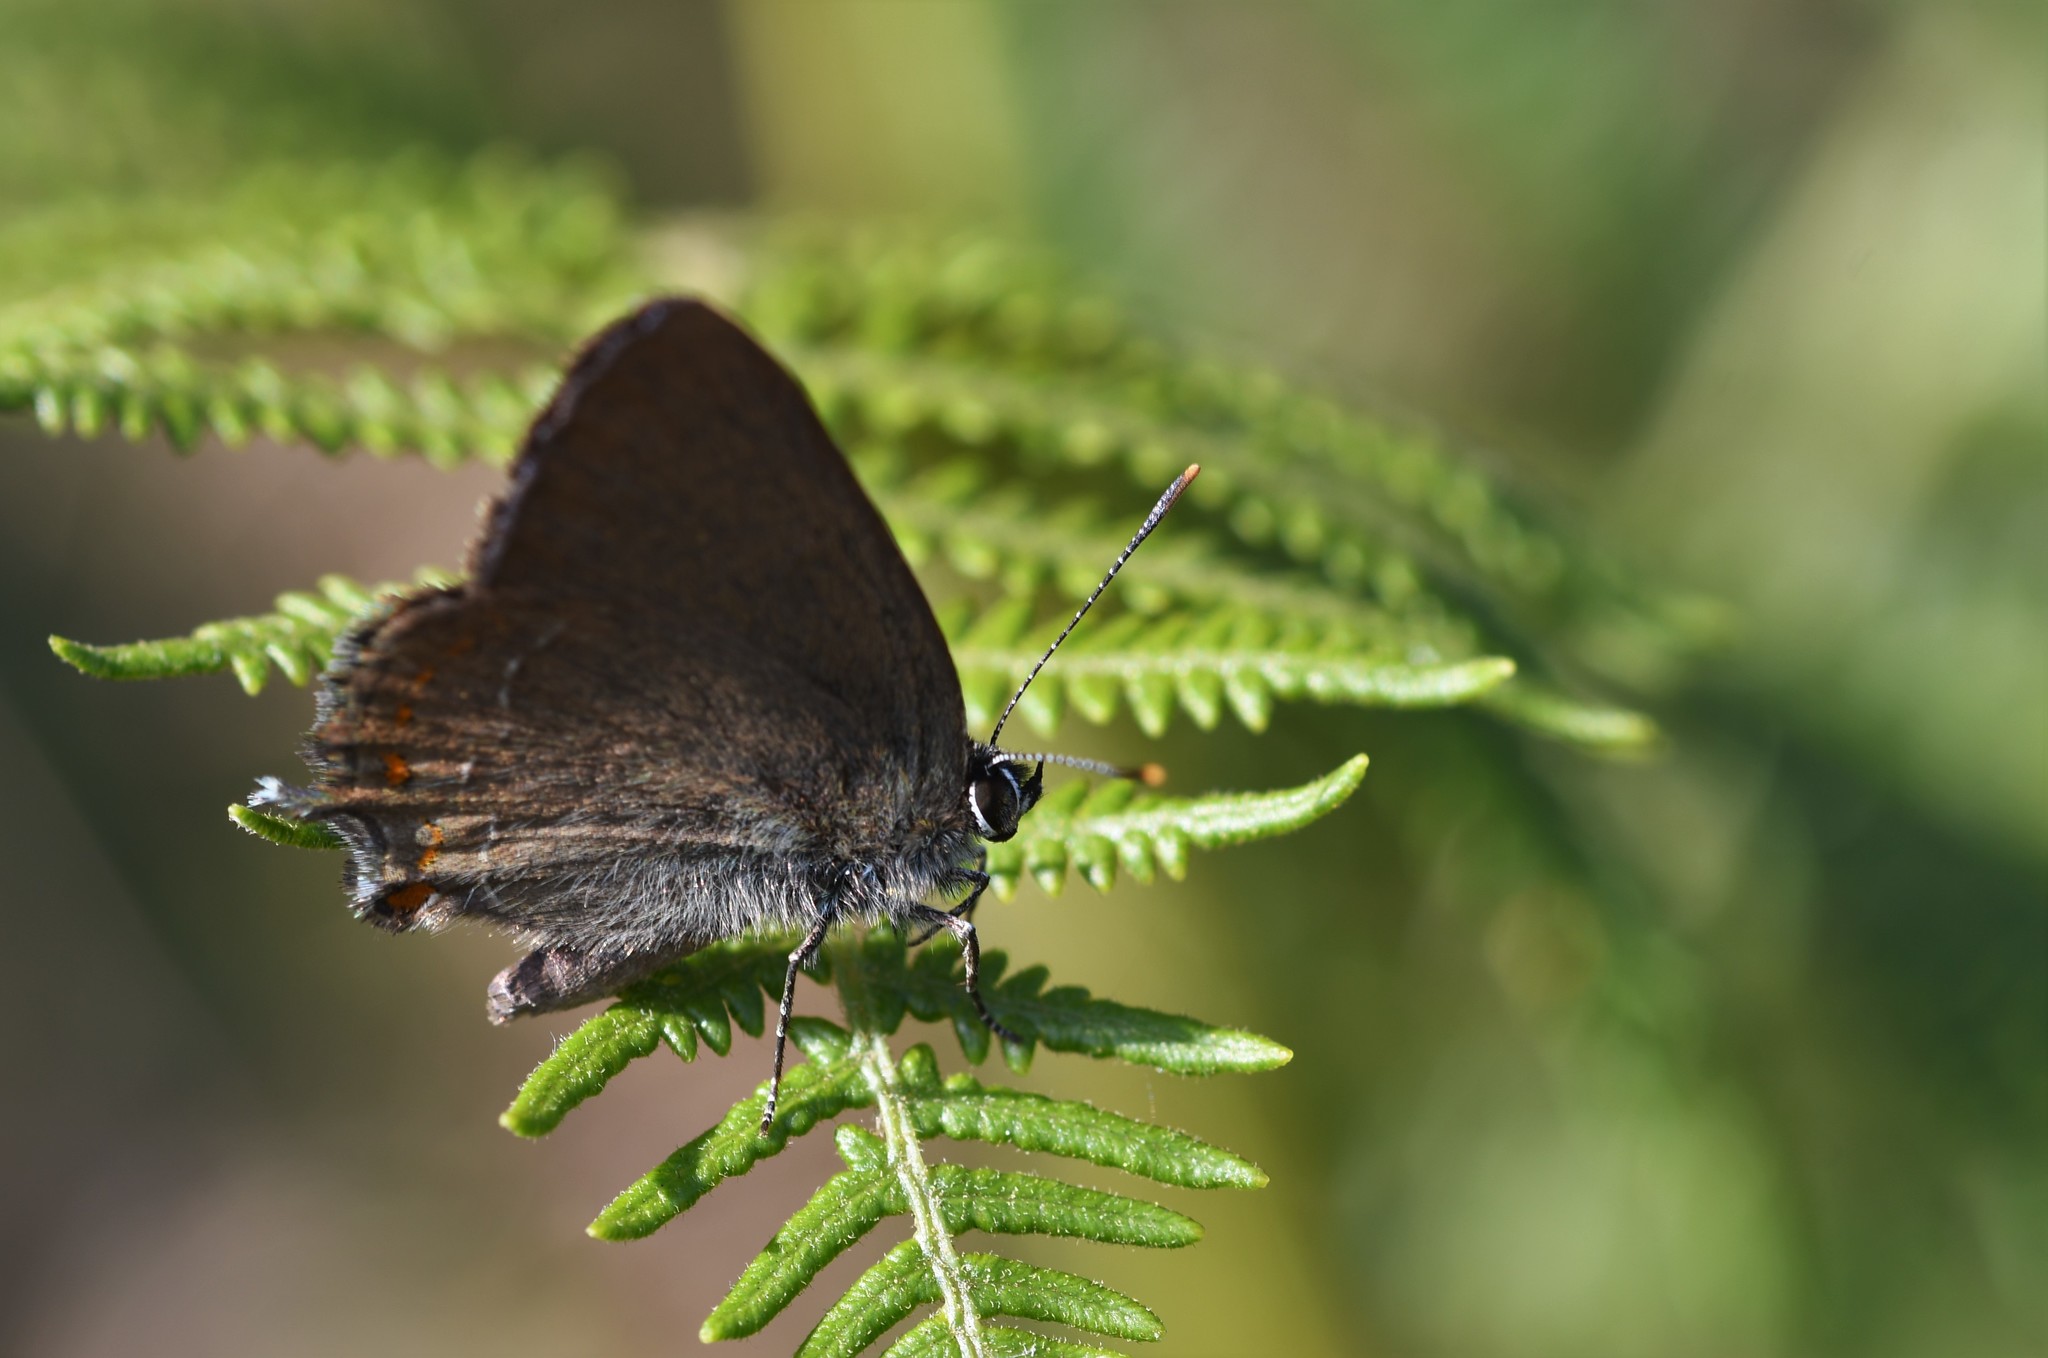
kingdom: Animalia
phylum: Arthropoda
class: Insecta
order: Lepidoptera
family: Lycaenidae
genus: Fixsenia
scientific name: Fixsenia esculi
